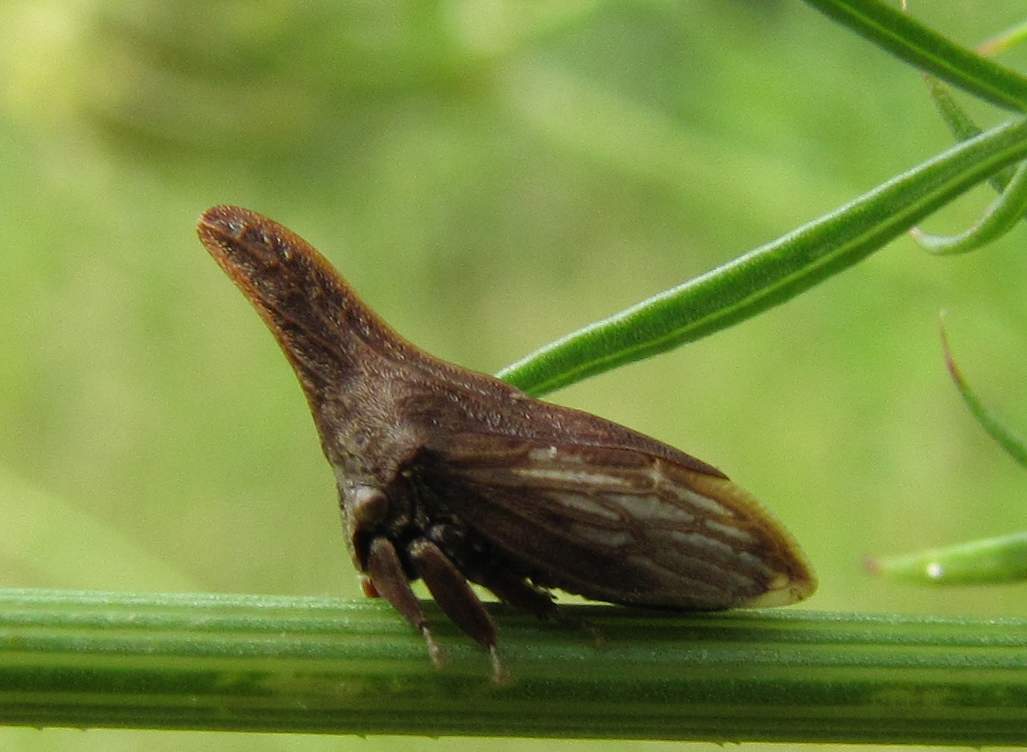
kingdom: Animalia
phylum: Arthropoda
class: Insecta
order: Hemiptera
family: Membracidae
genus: Enchenopa
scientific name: Enchenopa latipes
